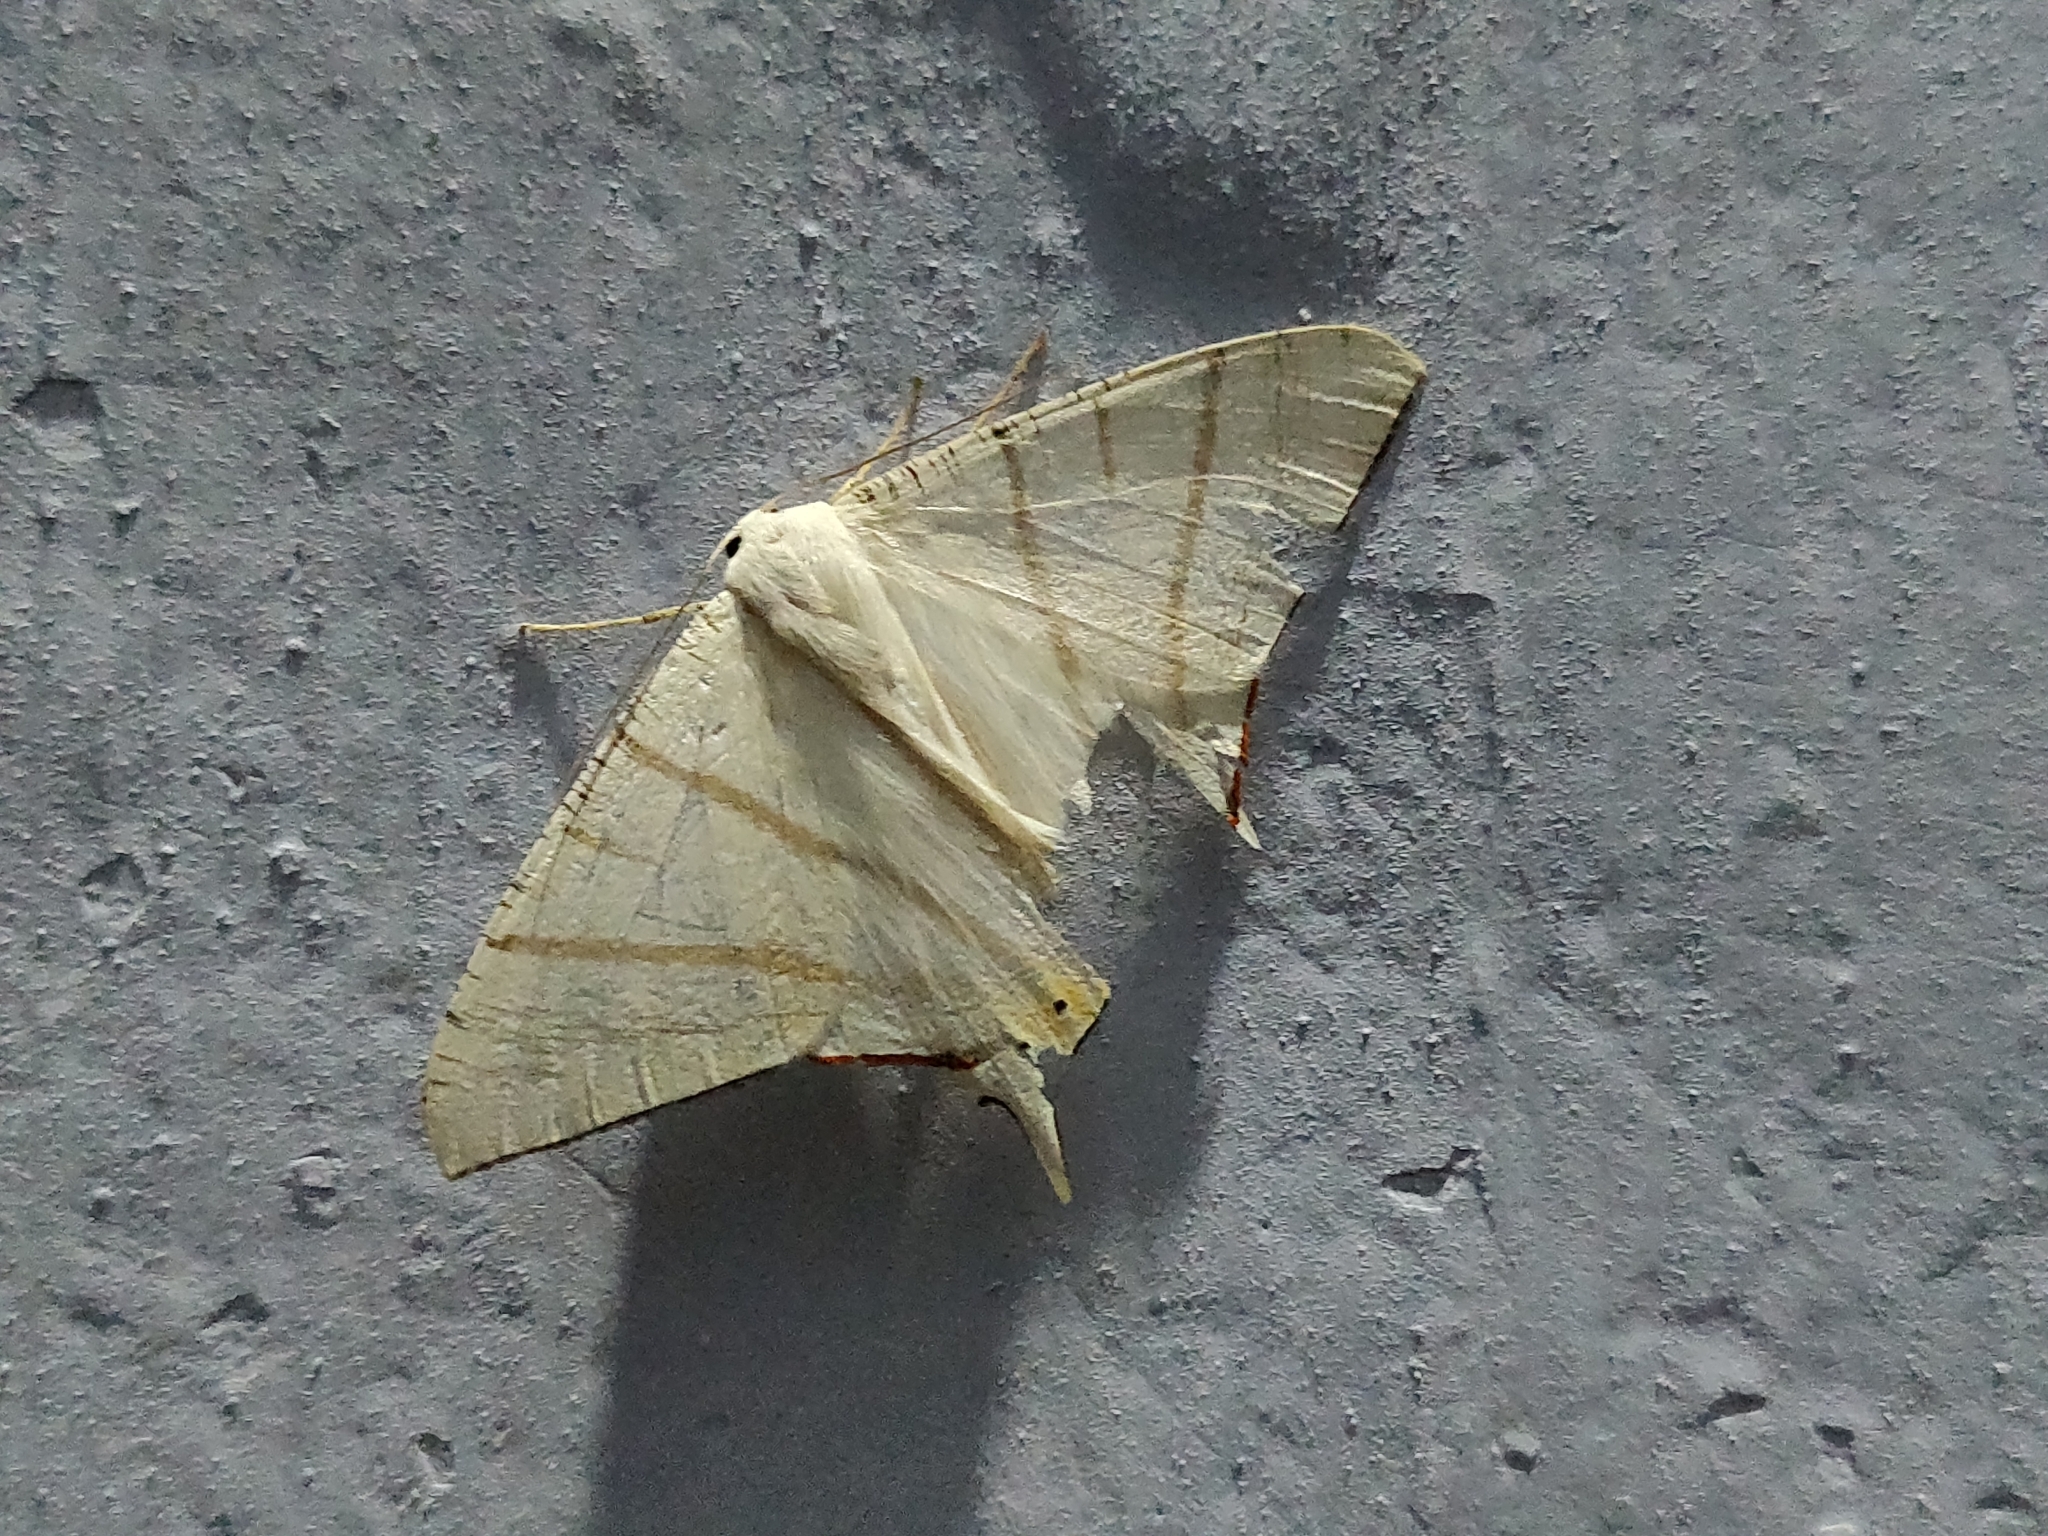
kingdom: Animalia
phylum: Arthropoda
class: Insecta
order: Lepidoptera
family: Geometridae
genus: Ourapteryx
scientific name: Ourapteryx marginata
